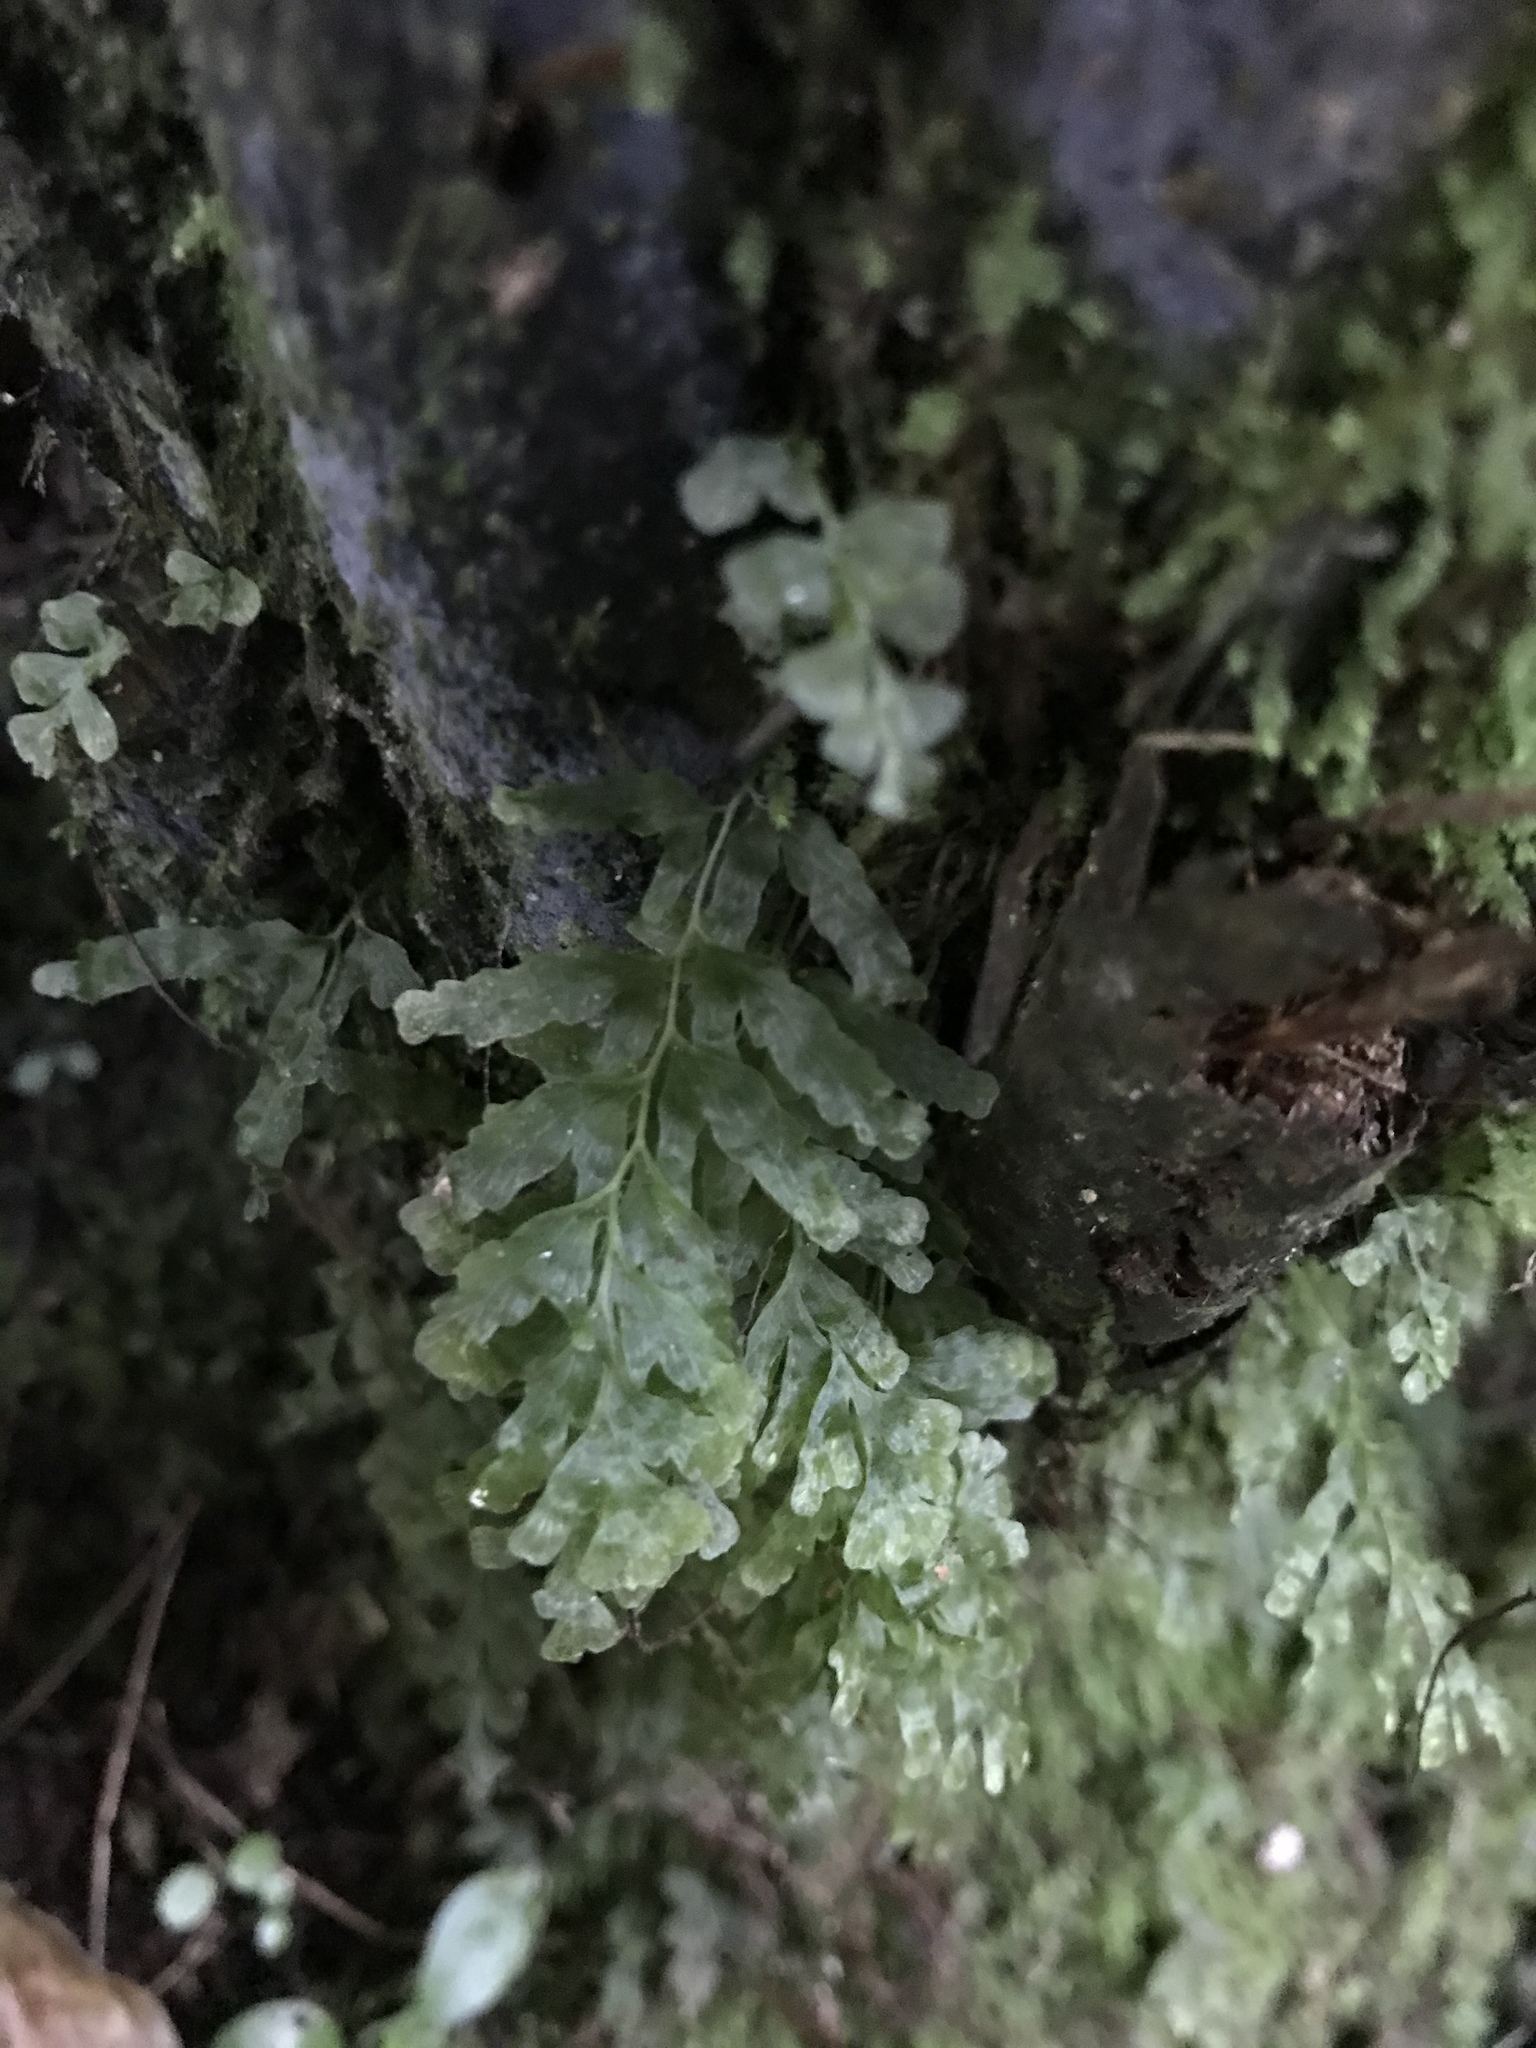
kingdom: Plantae
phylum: Tracheophyta
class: Polypodiopsida
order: Hymenophyllales
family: Hymenophyllaceae
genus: Polyphlebium
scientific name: Polyphlebium venosum
